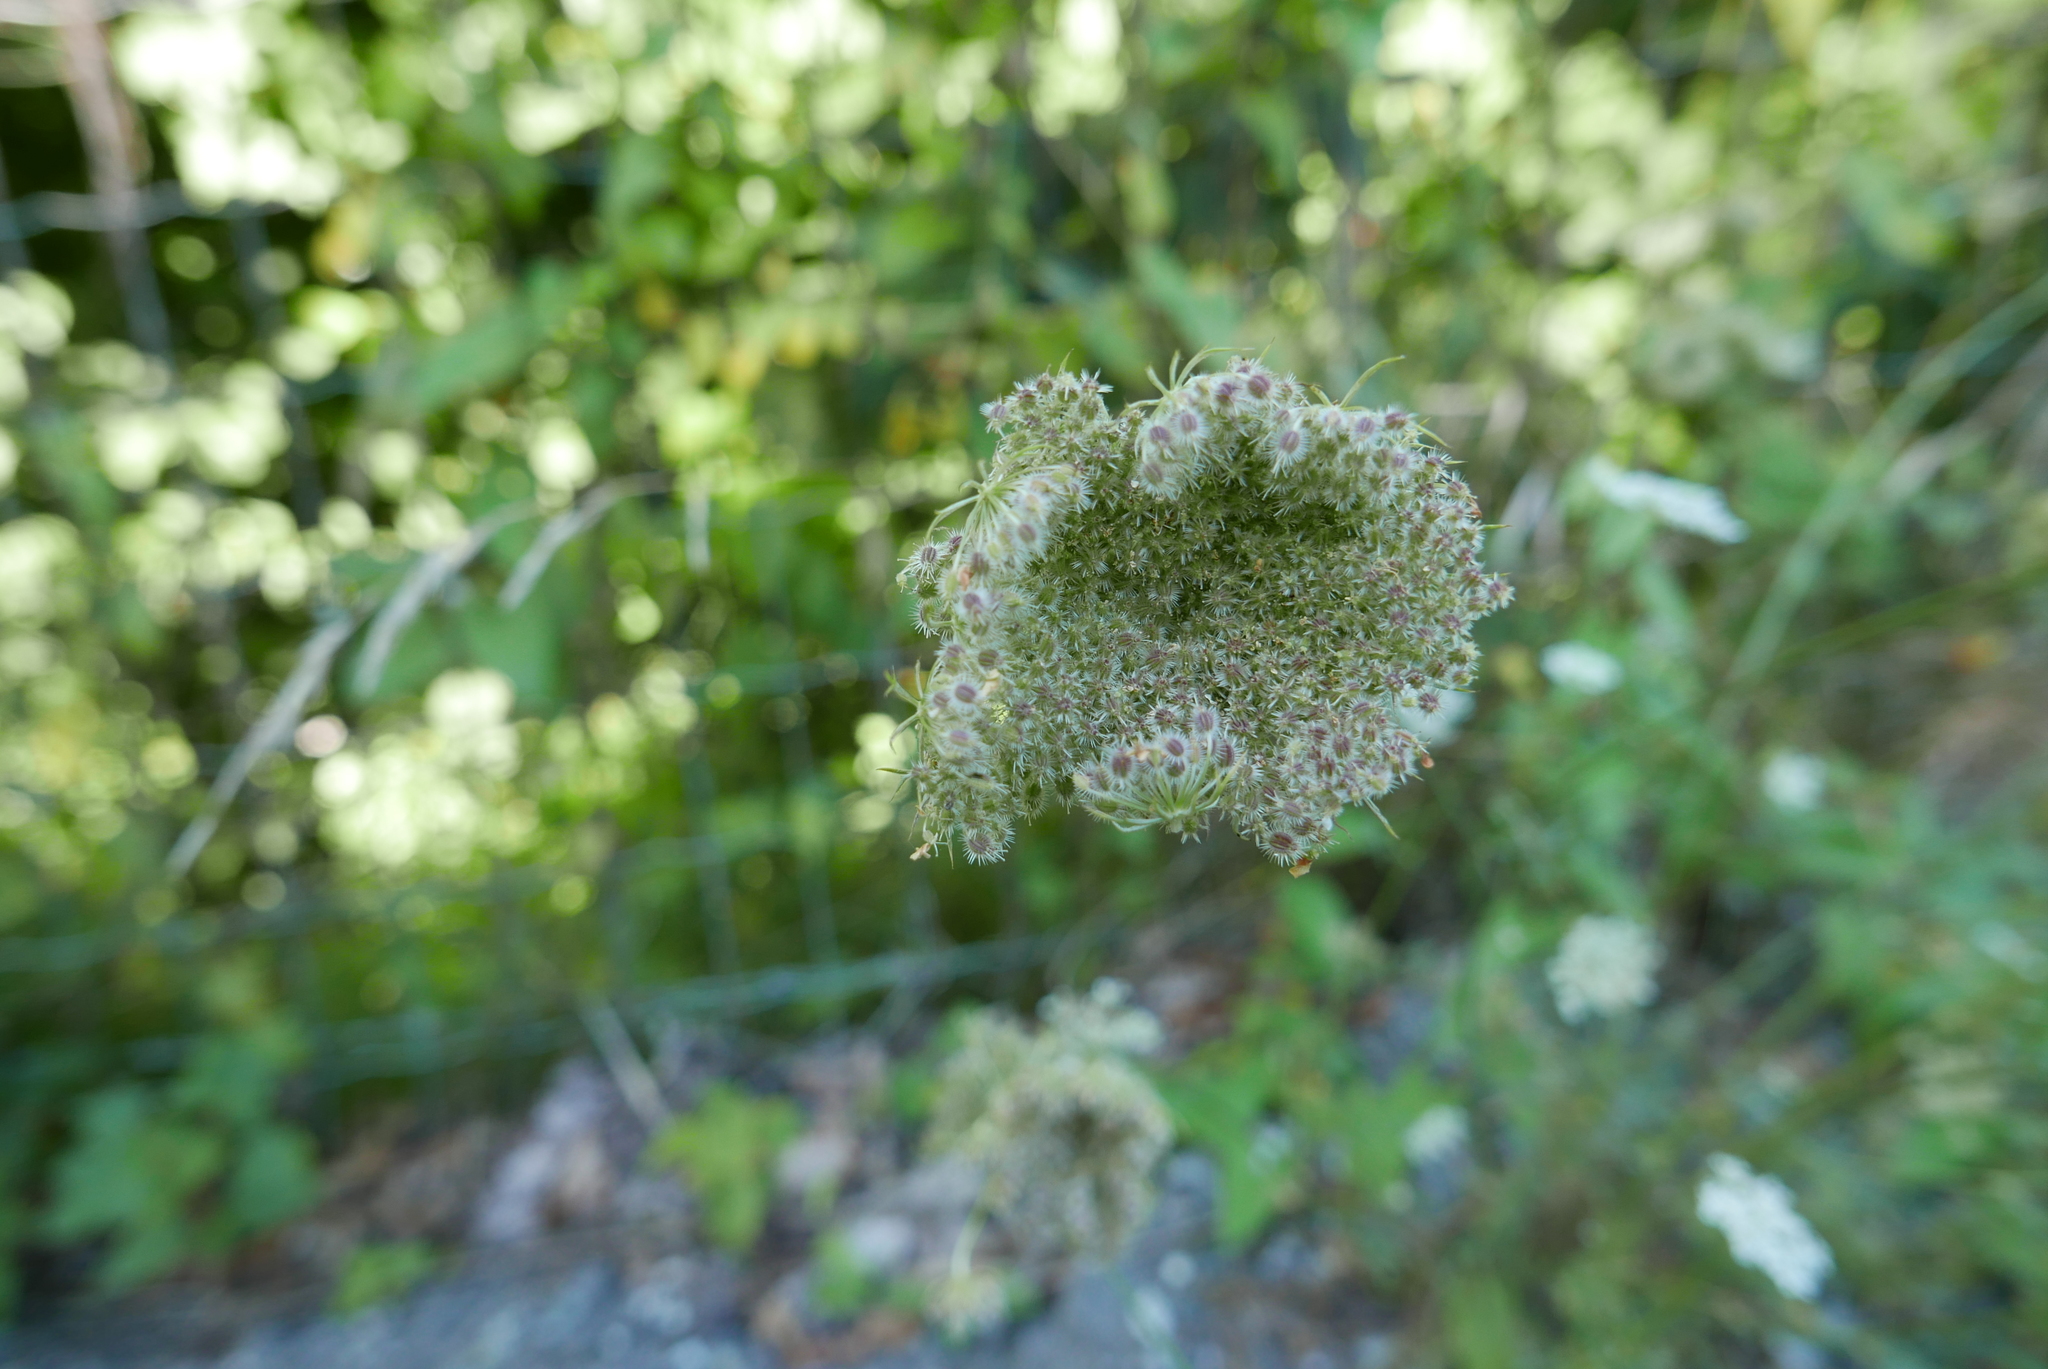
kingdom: Plantae
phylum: Tracheophyta
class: Magnoliopsida
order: Apiales
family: Apiaceae
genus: Daucus
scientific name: Daucus carota
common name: Wild carrot
